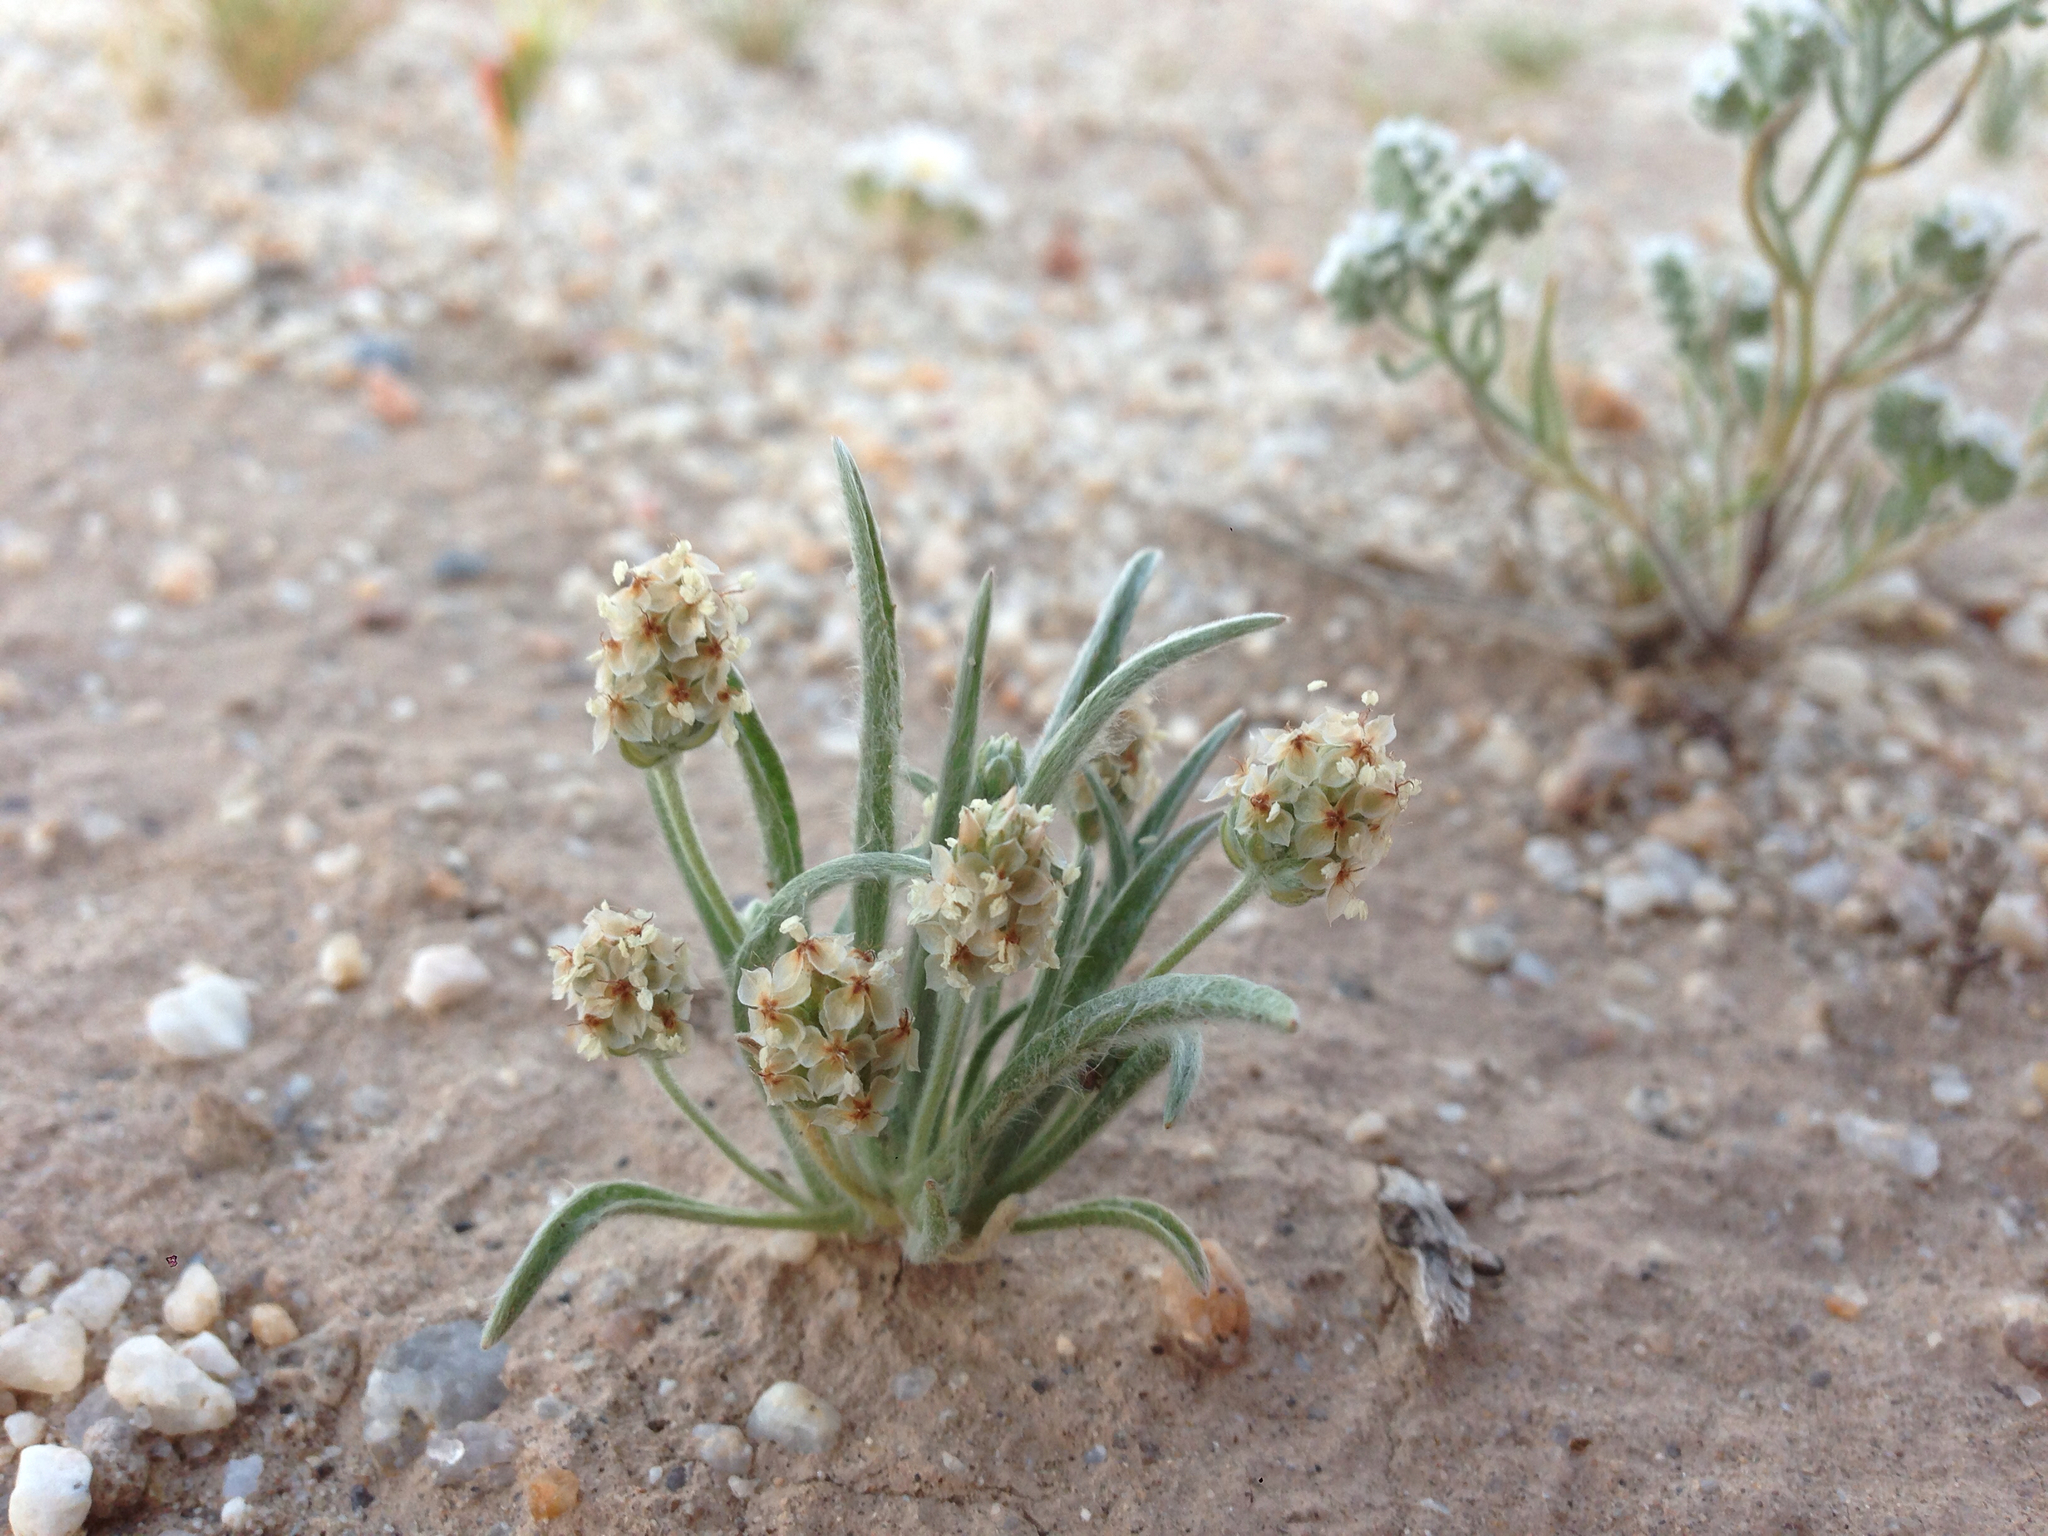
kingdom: Plantae
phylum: Tracheophyta
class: Magnoliopsida
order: Lamiales
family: Plantaginaceae
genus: Plantago
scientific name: Plantago ovata
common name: Blond plantain
